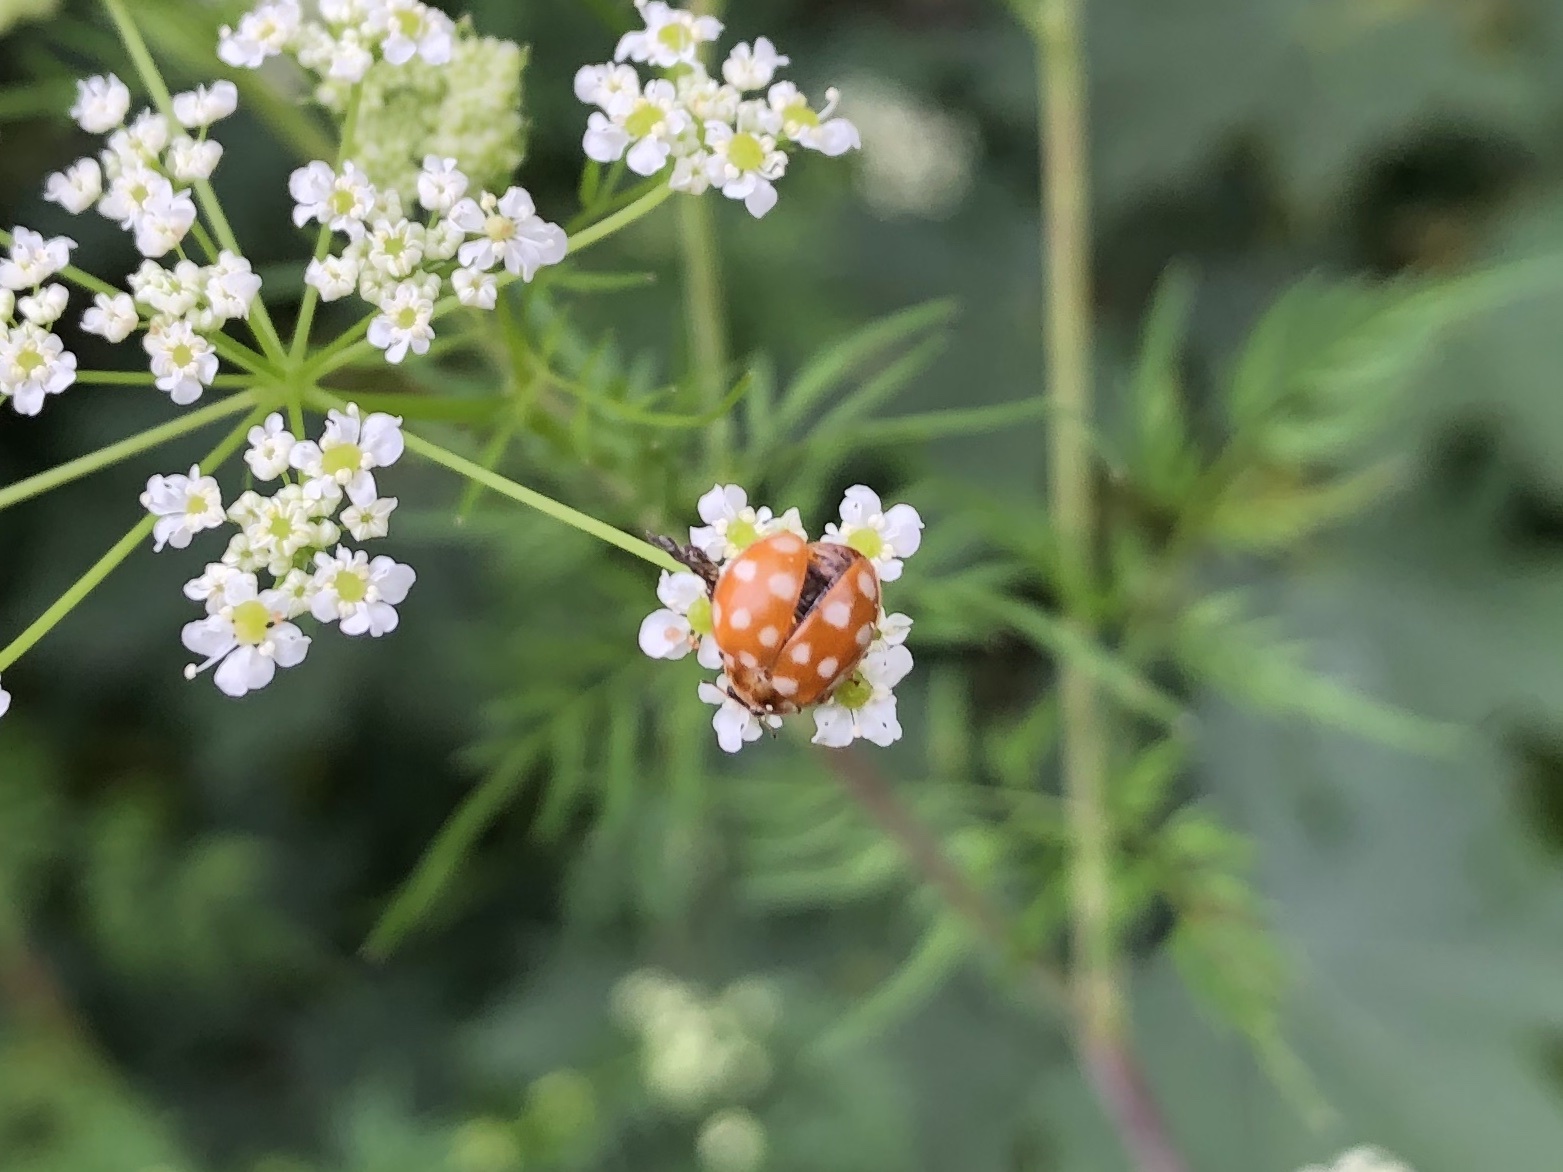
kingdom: Animalia
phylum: Arthropoda
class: Insecta
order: Coleoptera
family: Coccinellidae
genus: Calvia
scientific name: Calvia quatuordecimguttata
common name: Cream-spot ladybird
